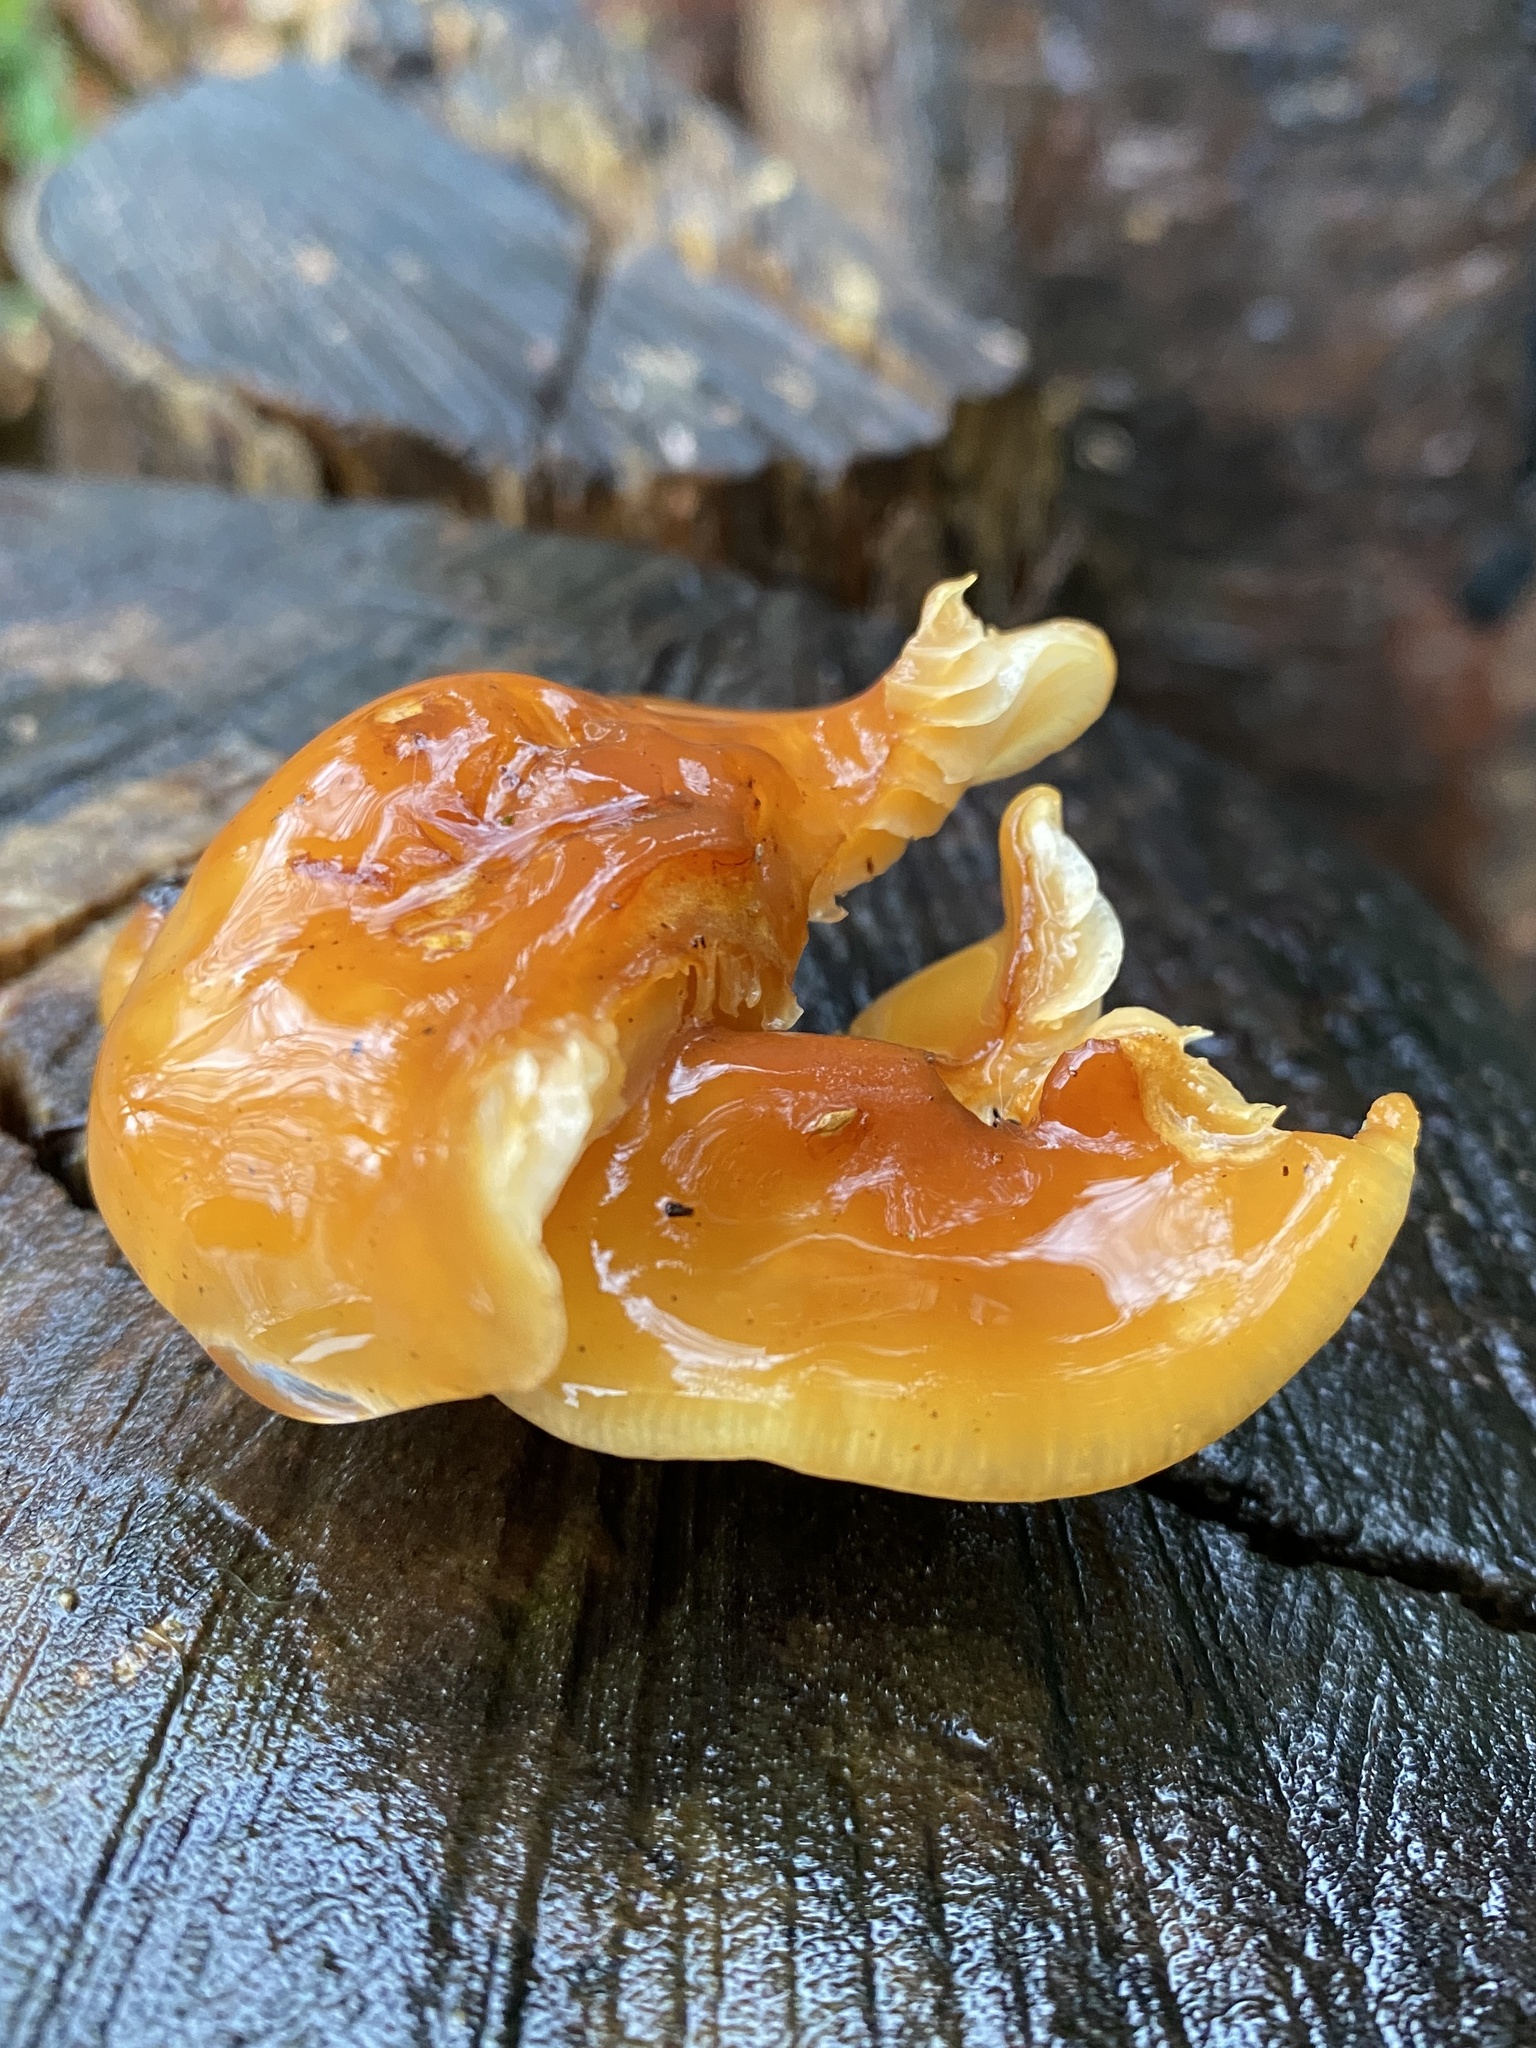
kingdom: Fungi
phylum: Basidiomycota
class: Agaricomycetes
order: Agaricales
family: Physalacriaceae
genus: Flammulina
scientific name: Flammulina
